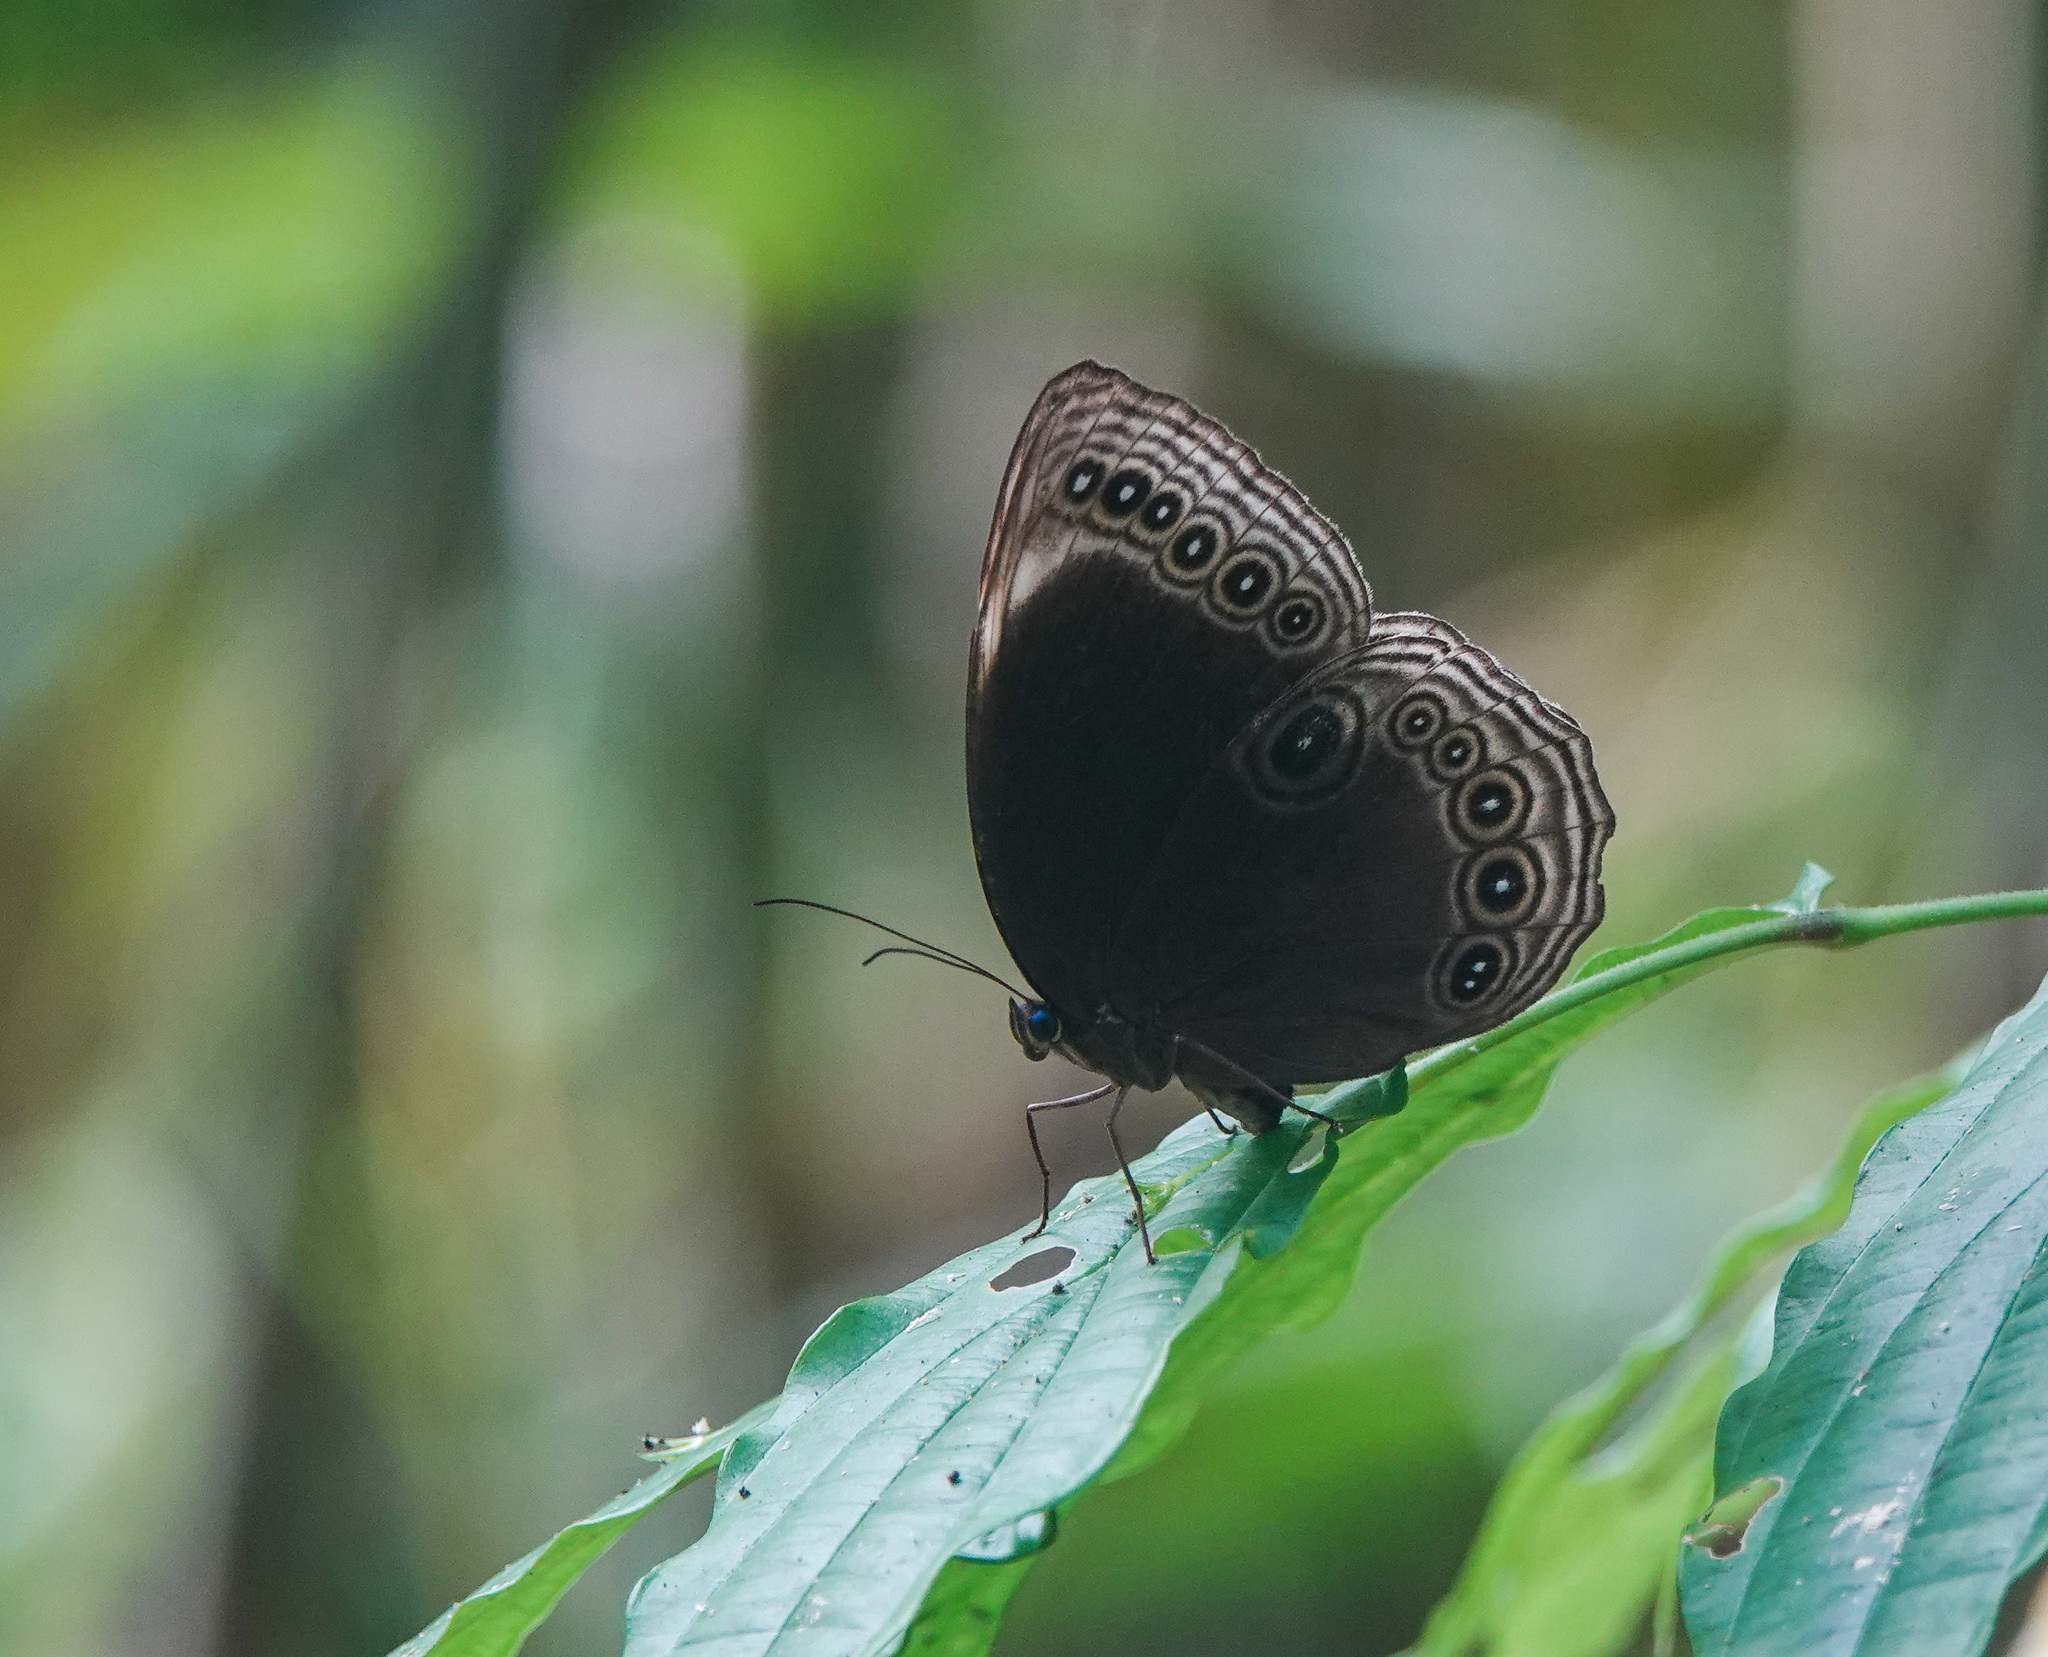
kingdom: Animalia
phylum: Arthropoda
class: Insecta
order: Lepidoptera
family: Nymphalidae
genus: Ethope
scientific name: Ethope himachala
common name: Dusky diadem
